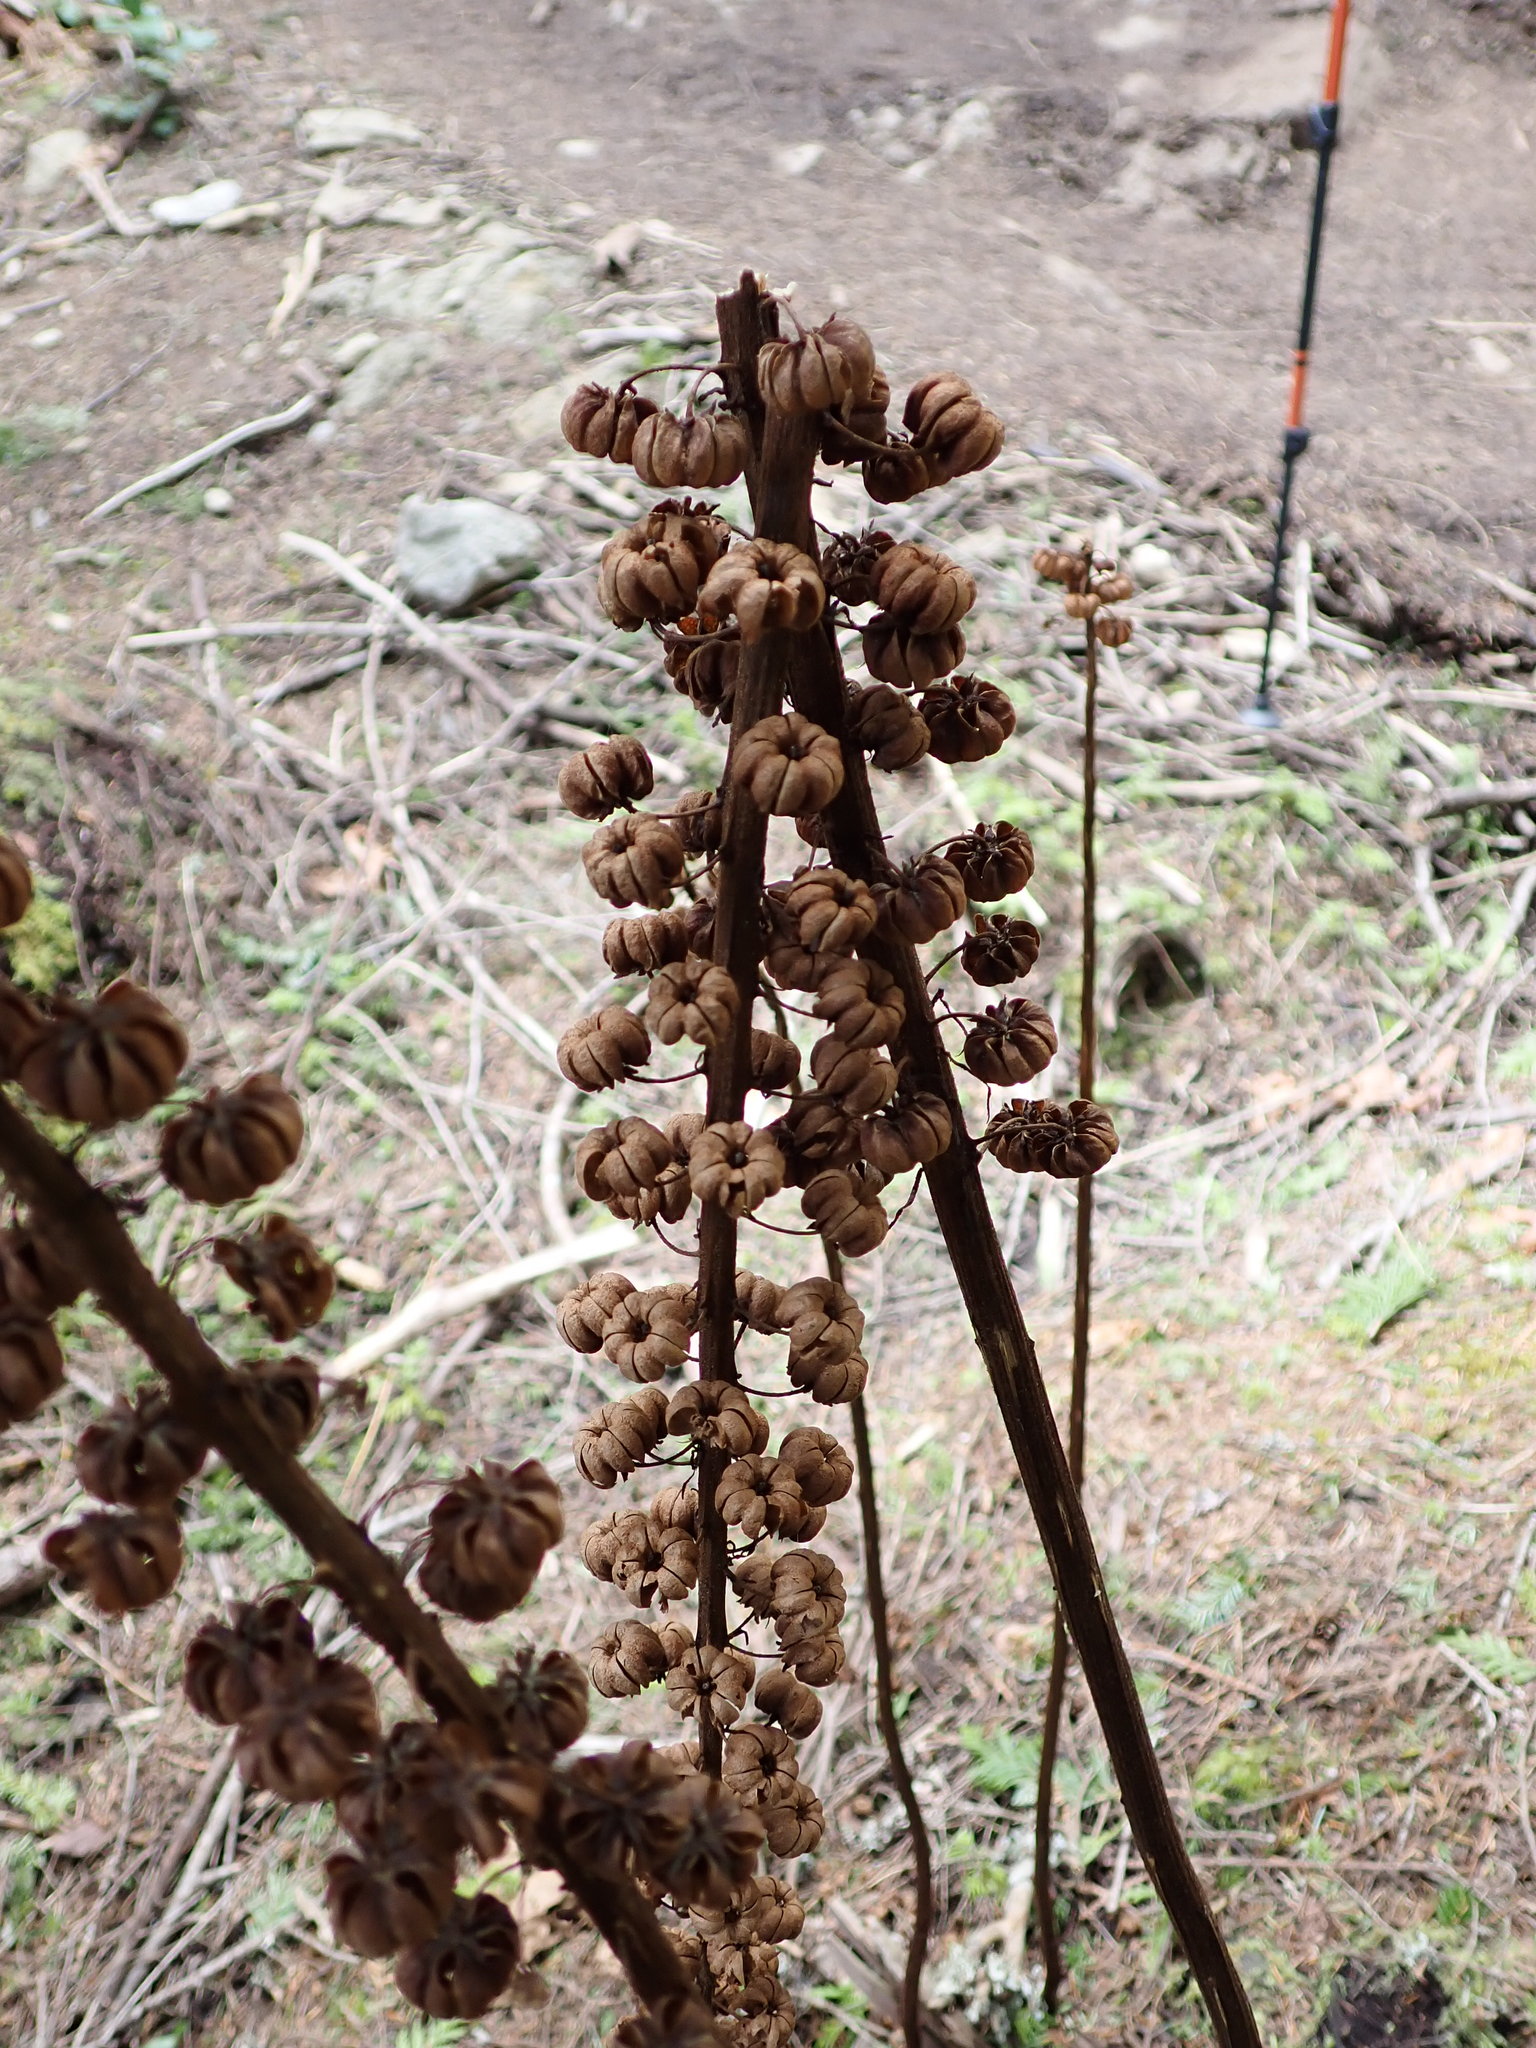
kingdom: Plantae
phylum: Tracheophyta
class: Magnoliopsida
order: Ericales
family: Ericaceae
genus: Pterospora
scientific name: Pterospora andromedea
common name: Giant bird's-nest
